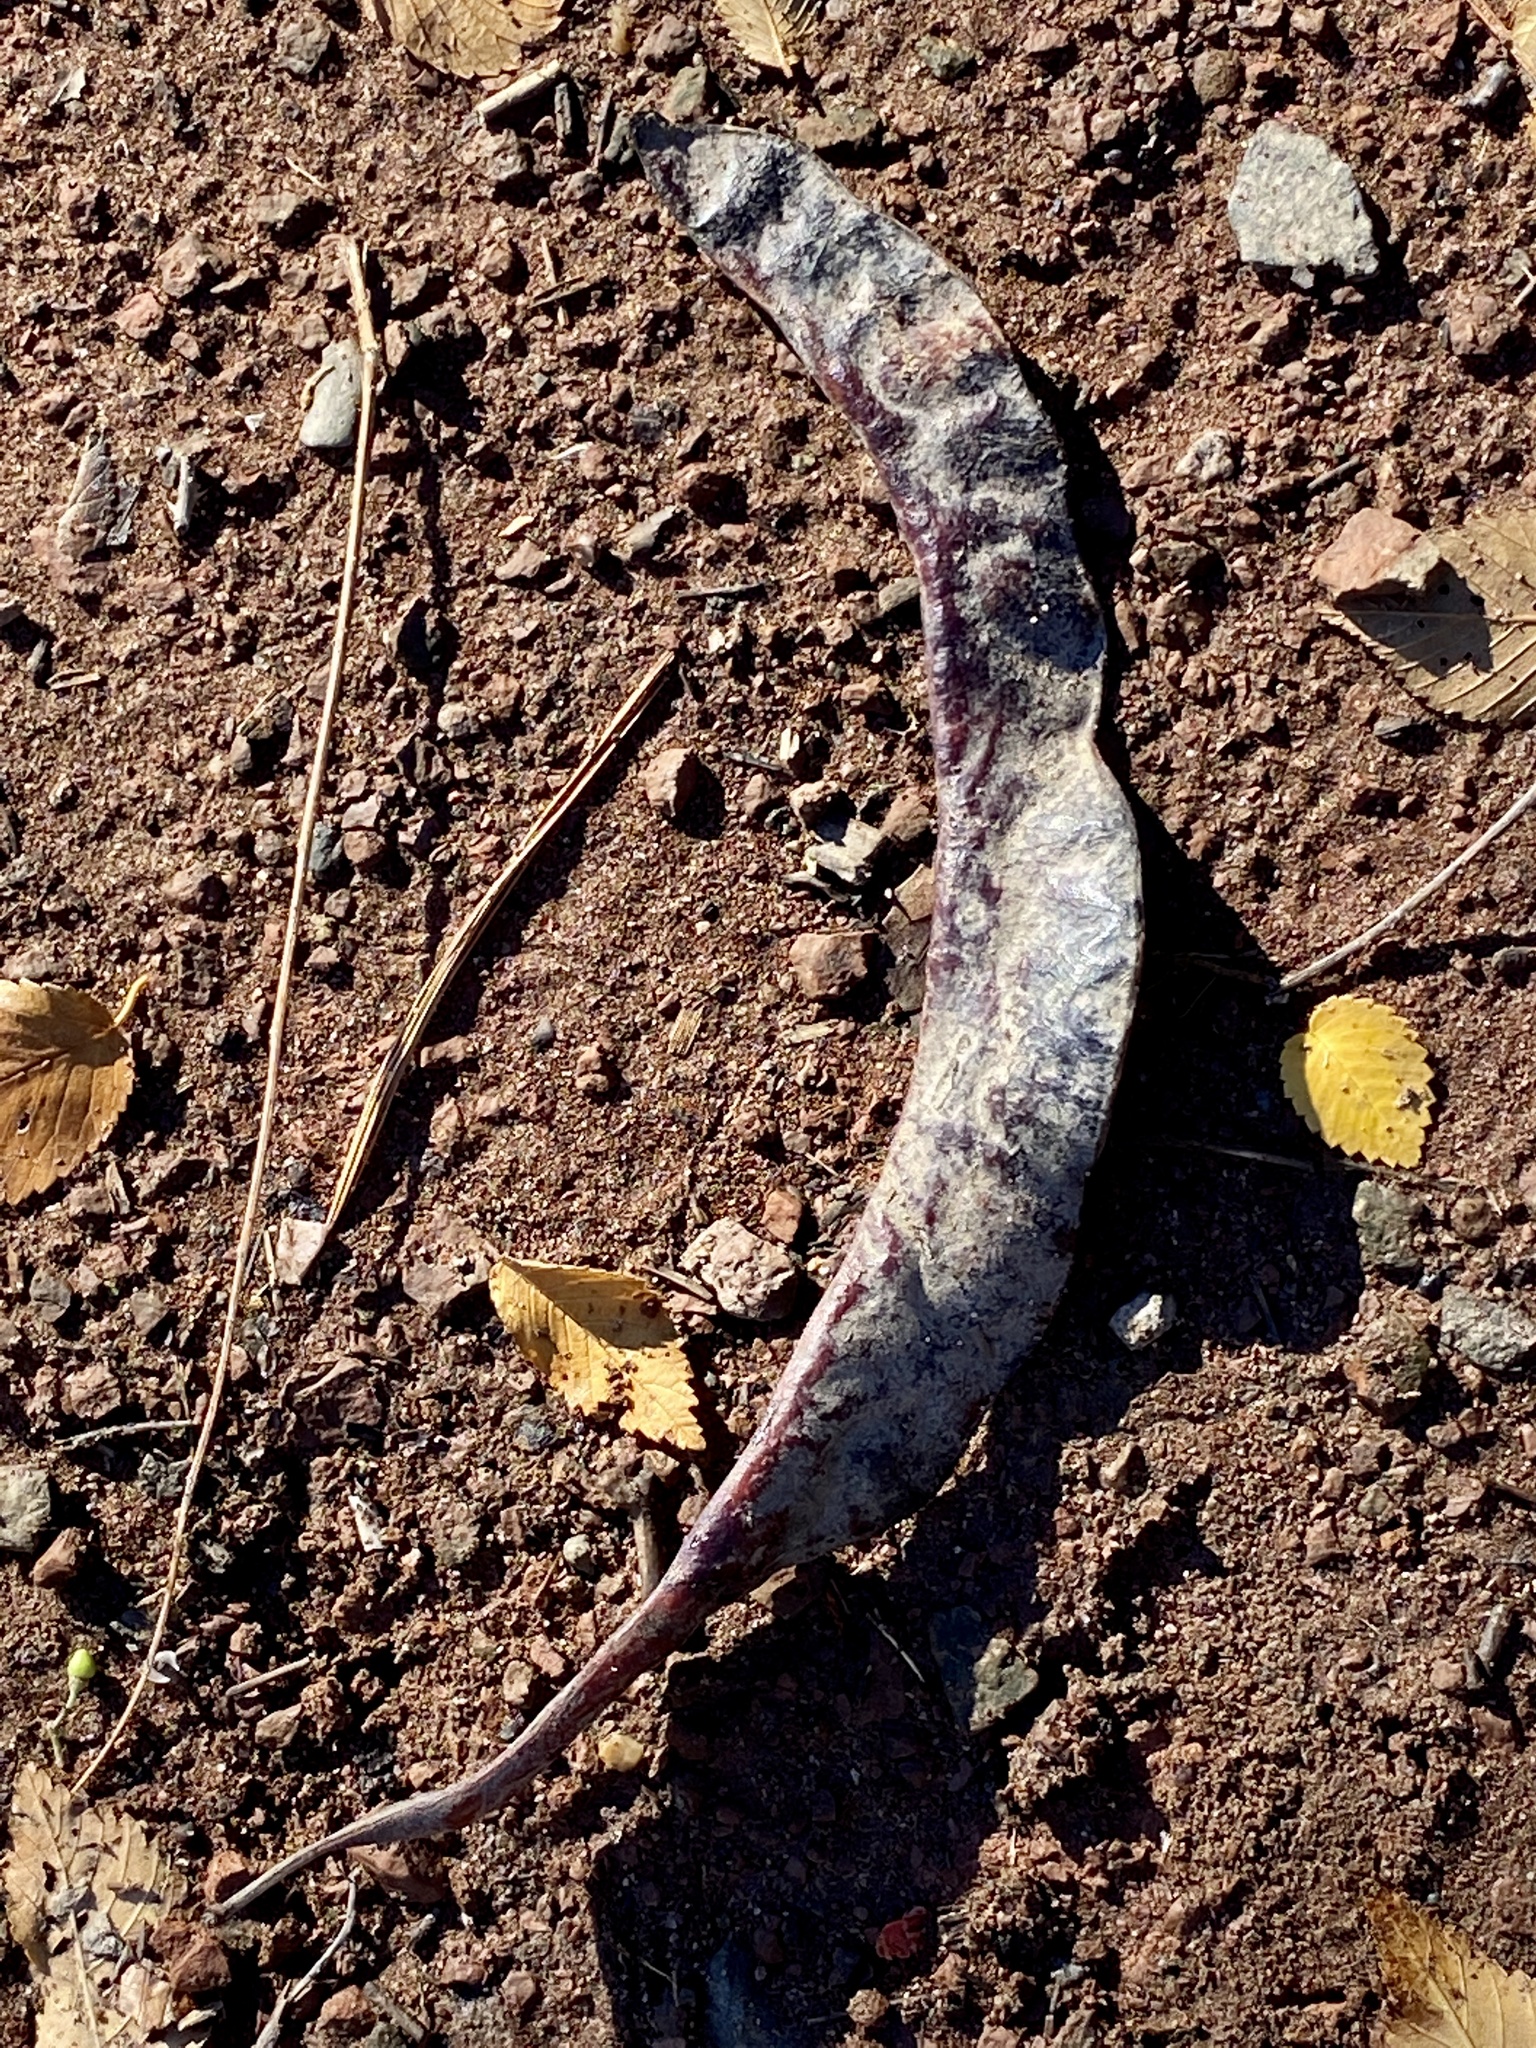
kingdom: Plantae
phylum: Tracheophyta
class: Magnoliopsida
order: Fabales
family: Fabaceae
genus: Gleditsia
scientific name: Gleditsia triacanthos
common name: Common honeylocust
